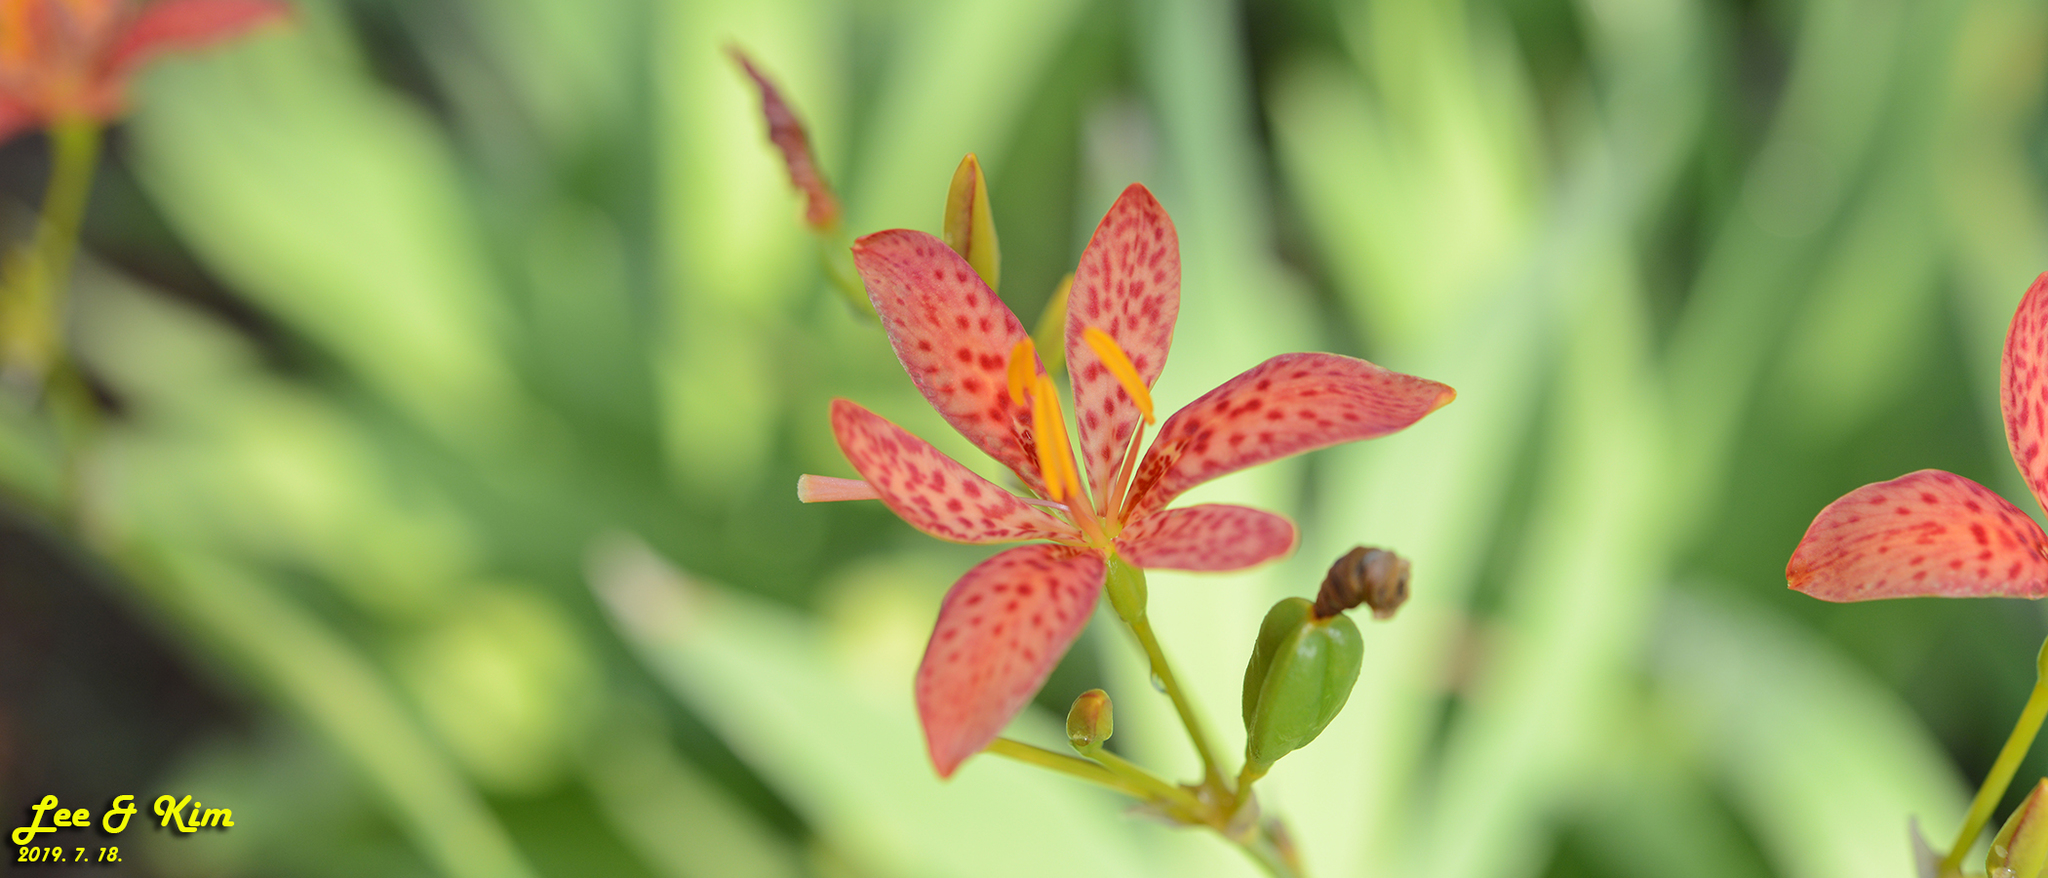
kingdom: Plantae
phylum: Tracheophyta
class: Liliopsida
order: Asparagales
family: Iridaceae
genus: Iris
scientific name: Iris domestica
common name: Belamcanda
